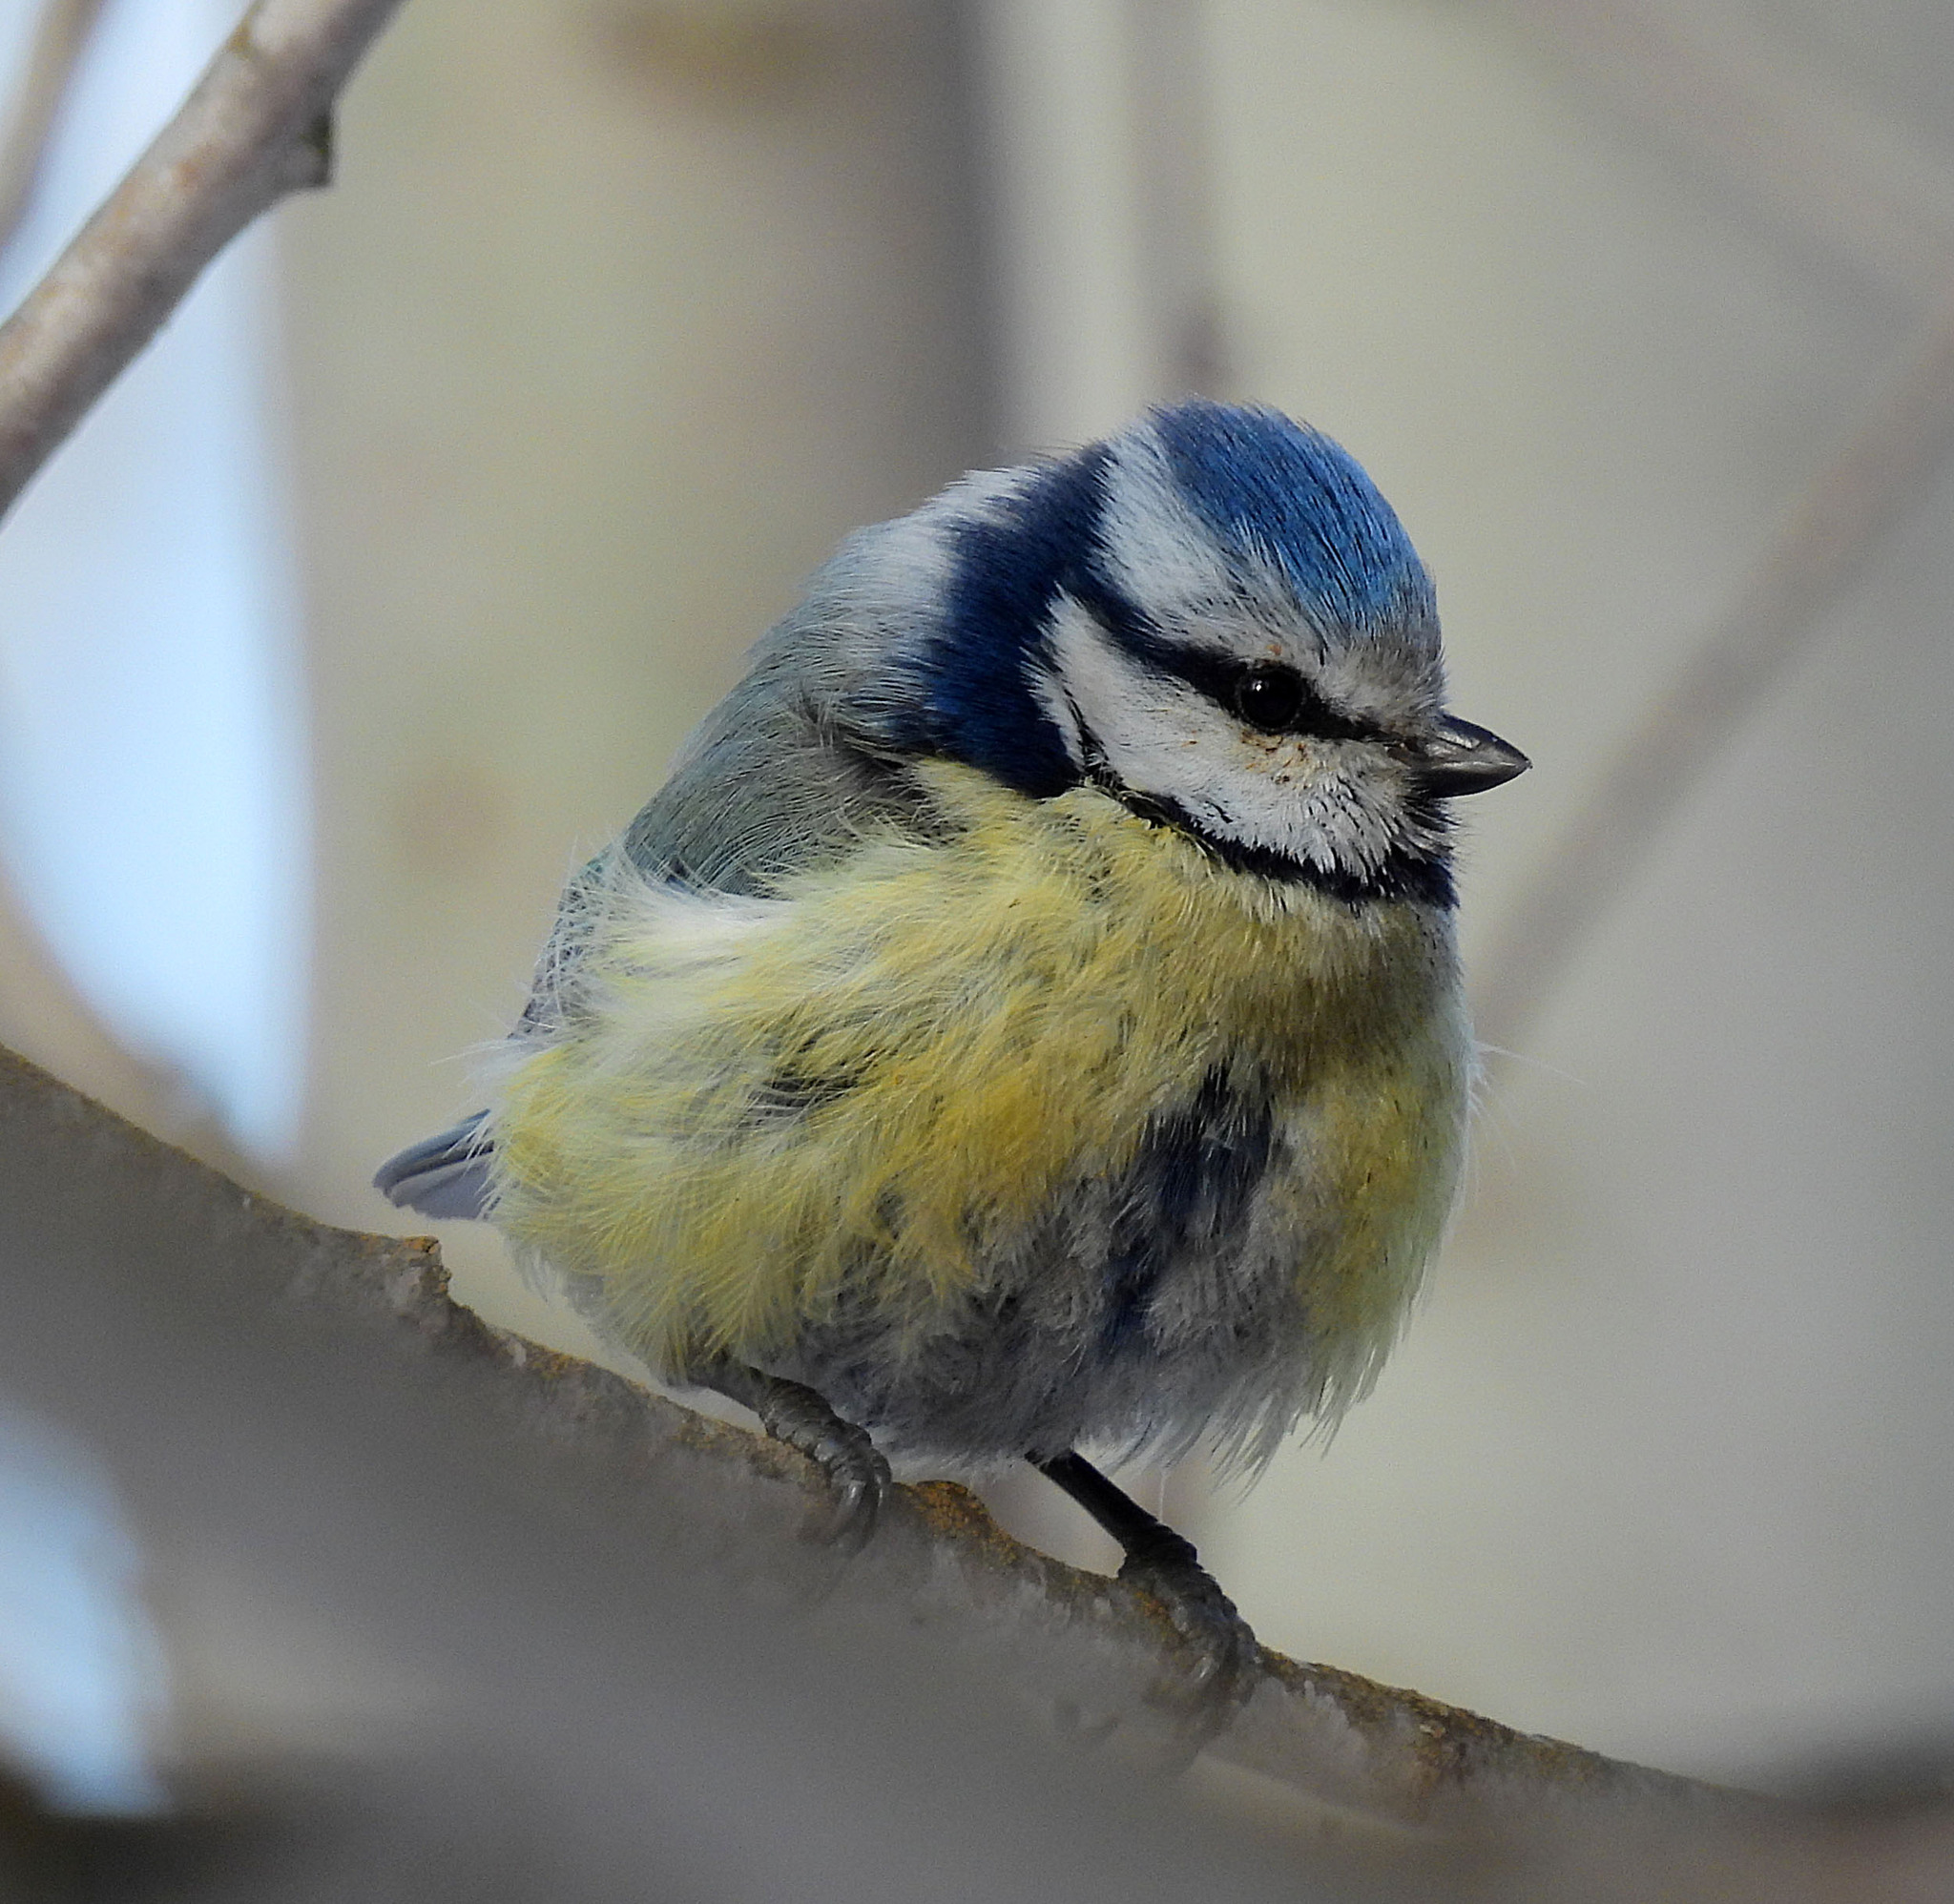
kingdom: Animalia
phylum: Chordata
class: Aves
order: Passeriformes
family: Paridae
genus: Cyanistes
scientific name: Cyanistes caeruleus
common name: Eurasian blue tit
